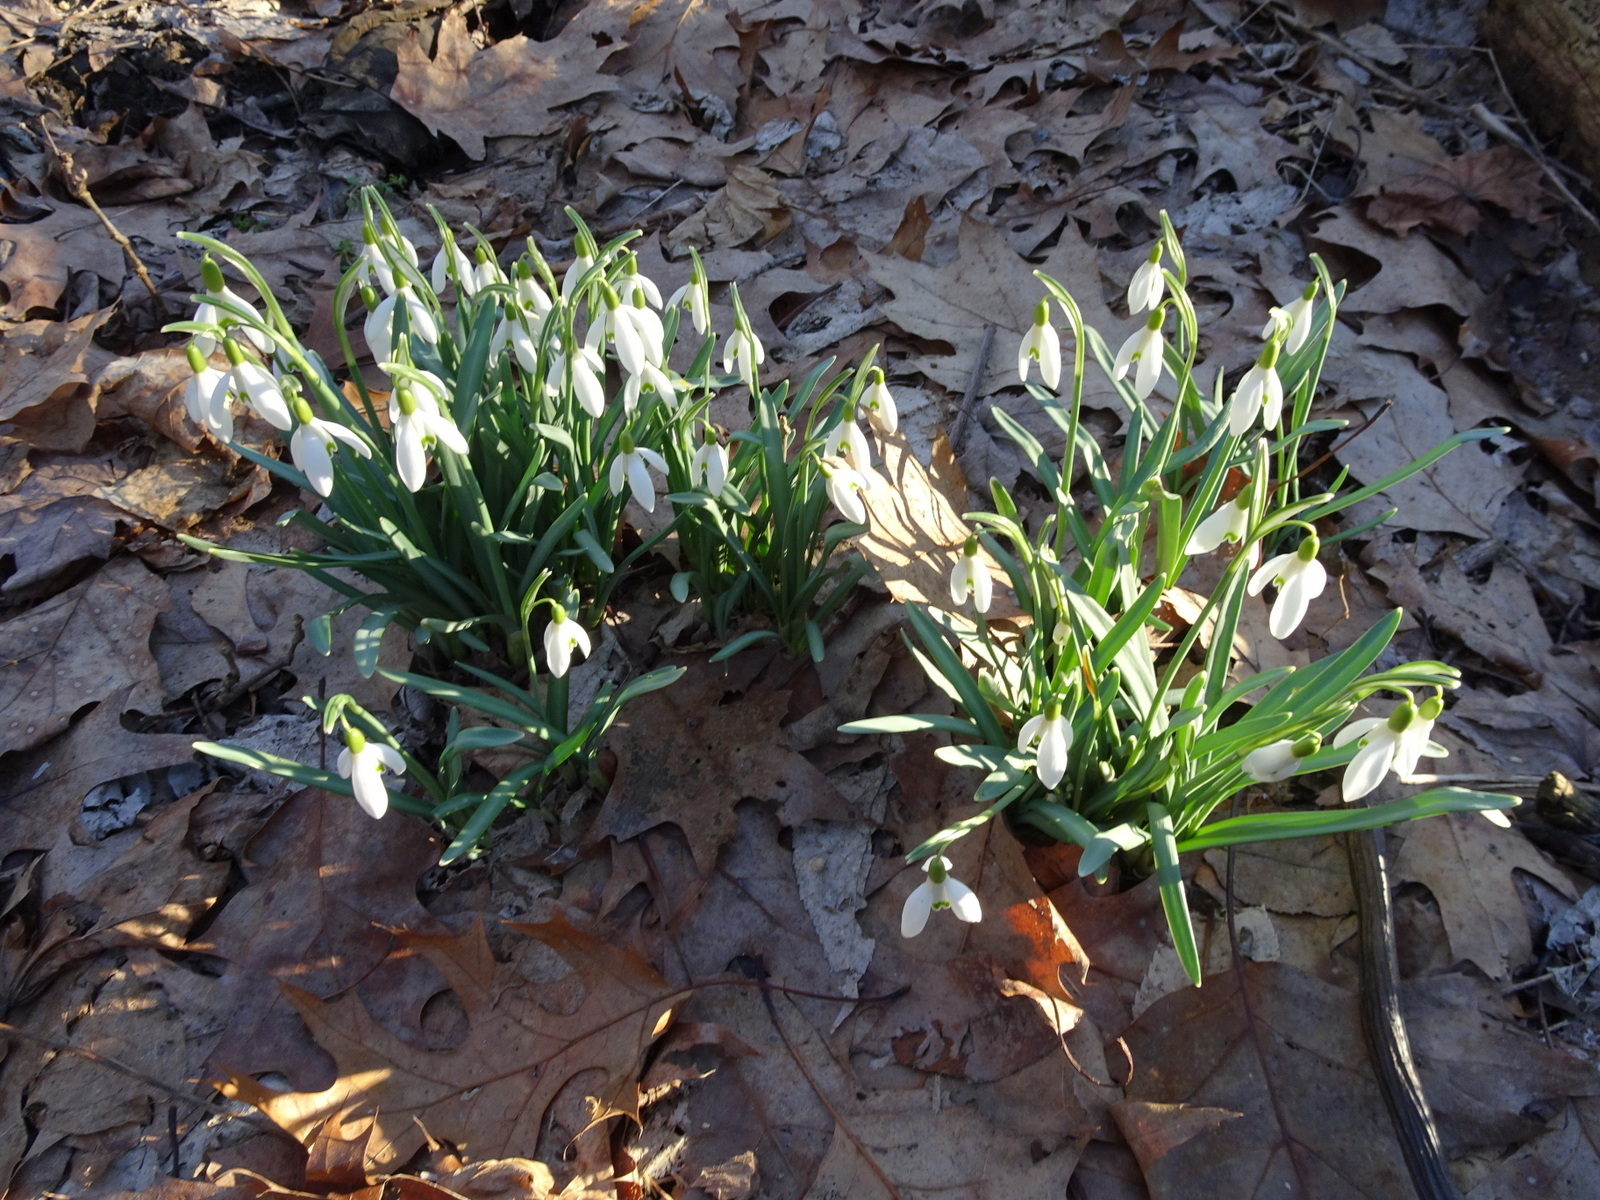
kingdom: Plantae
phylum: Tracheophyta
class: Liliopsida
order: Asparagales
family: Amaryllidaceae
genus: Galanthus
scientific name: Galanthus nivalis
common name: Snowdrop
